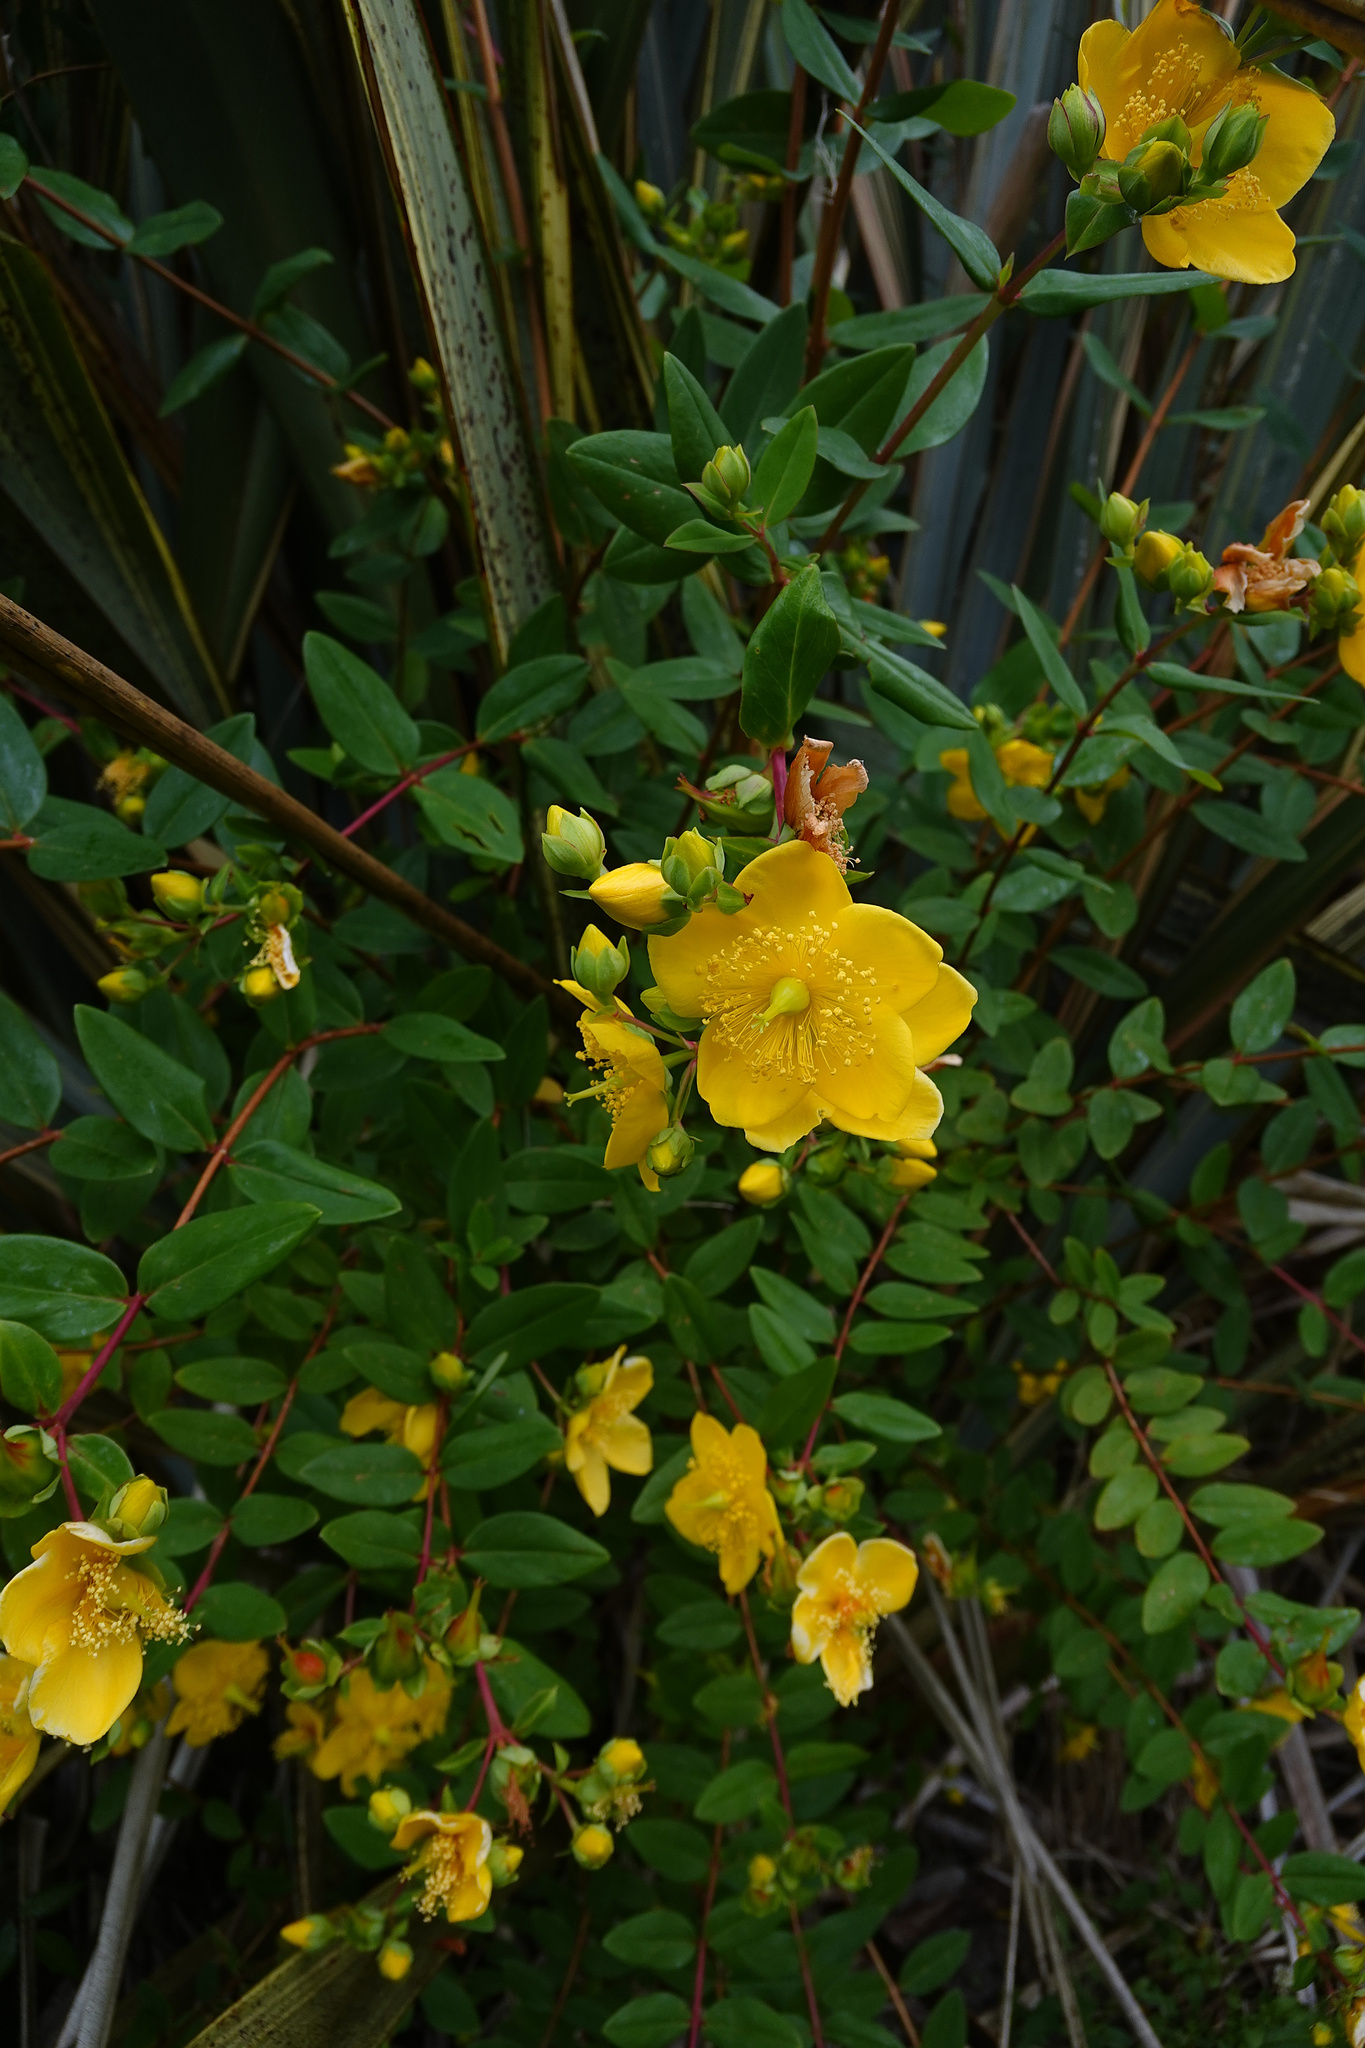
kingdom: Plantae
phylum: Tracheophyta
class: Magnoliopsida
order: Malpighiales
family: Hypericaceae
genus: Hypericum
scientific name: Hypericum calycinum
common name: Rose-of-sharon
